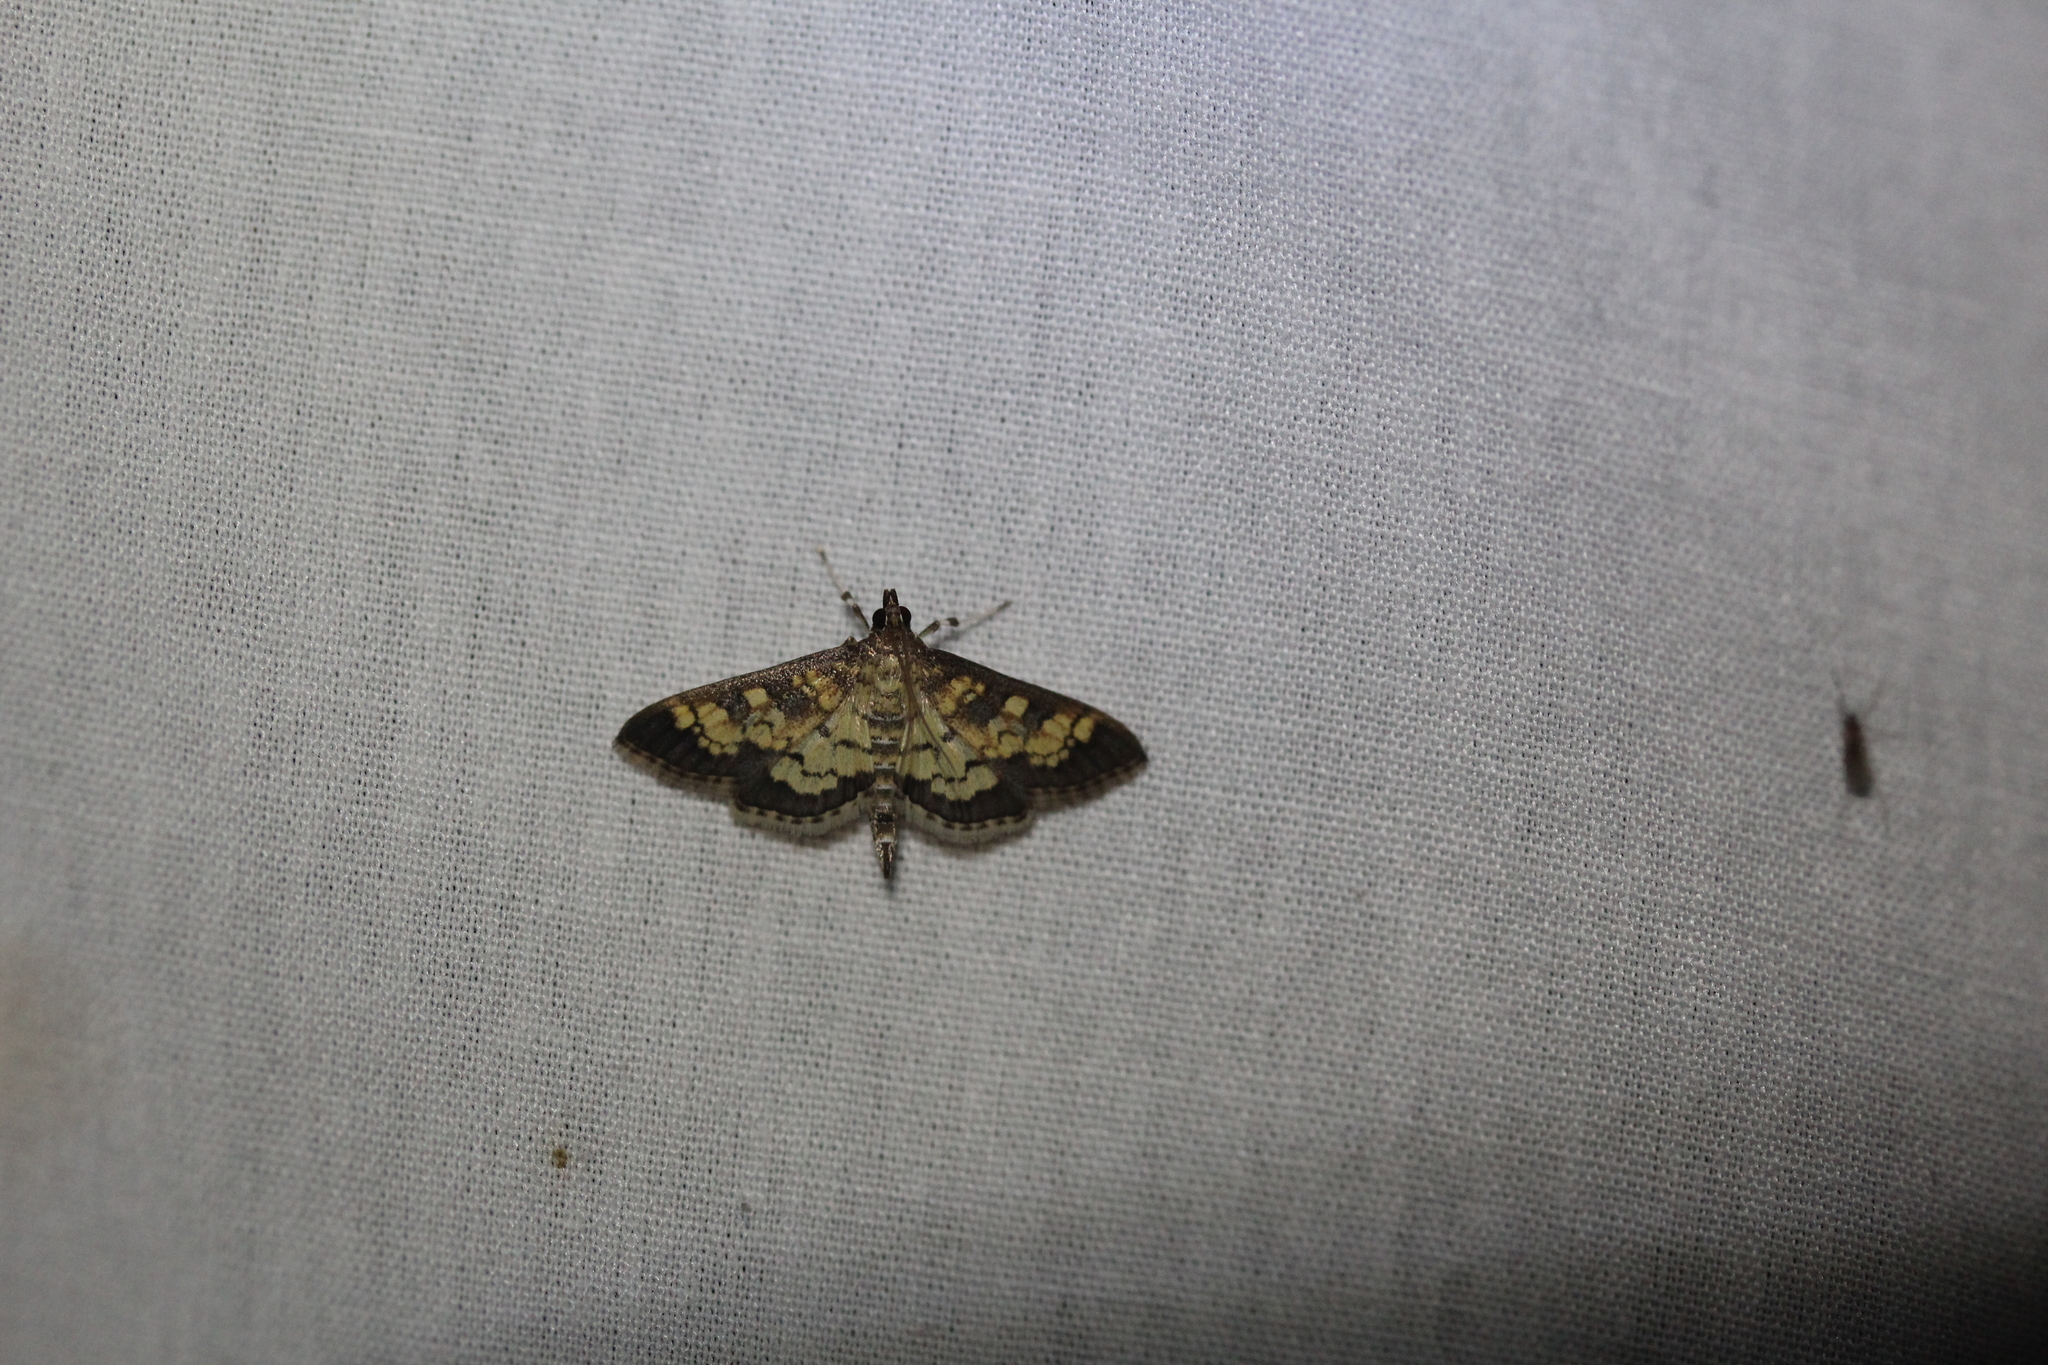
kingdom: Animalia
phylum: Arthropoda
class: Insecta
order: Lepidoptera
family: Crambidae
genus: Epipagis
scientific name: Epipagis adipaloides
